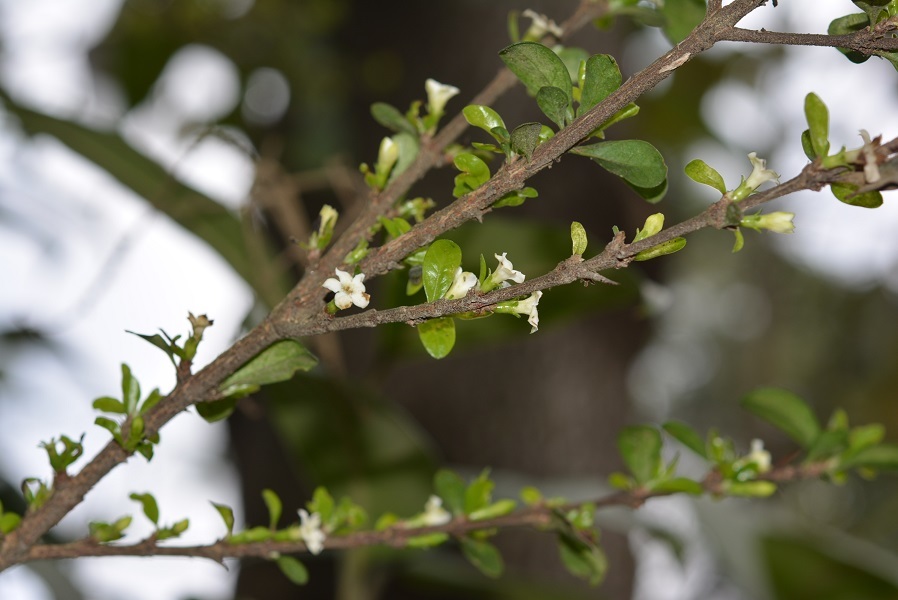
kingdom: Plantae
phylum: Tracheophyta
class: Magnoliopsida
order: Gentianales
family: Rubiaceae
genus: Randia
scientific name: Randia chiapensis
